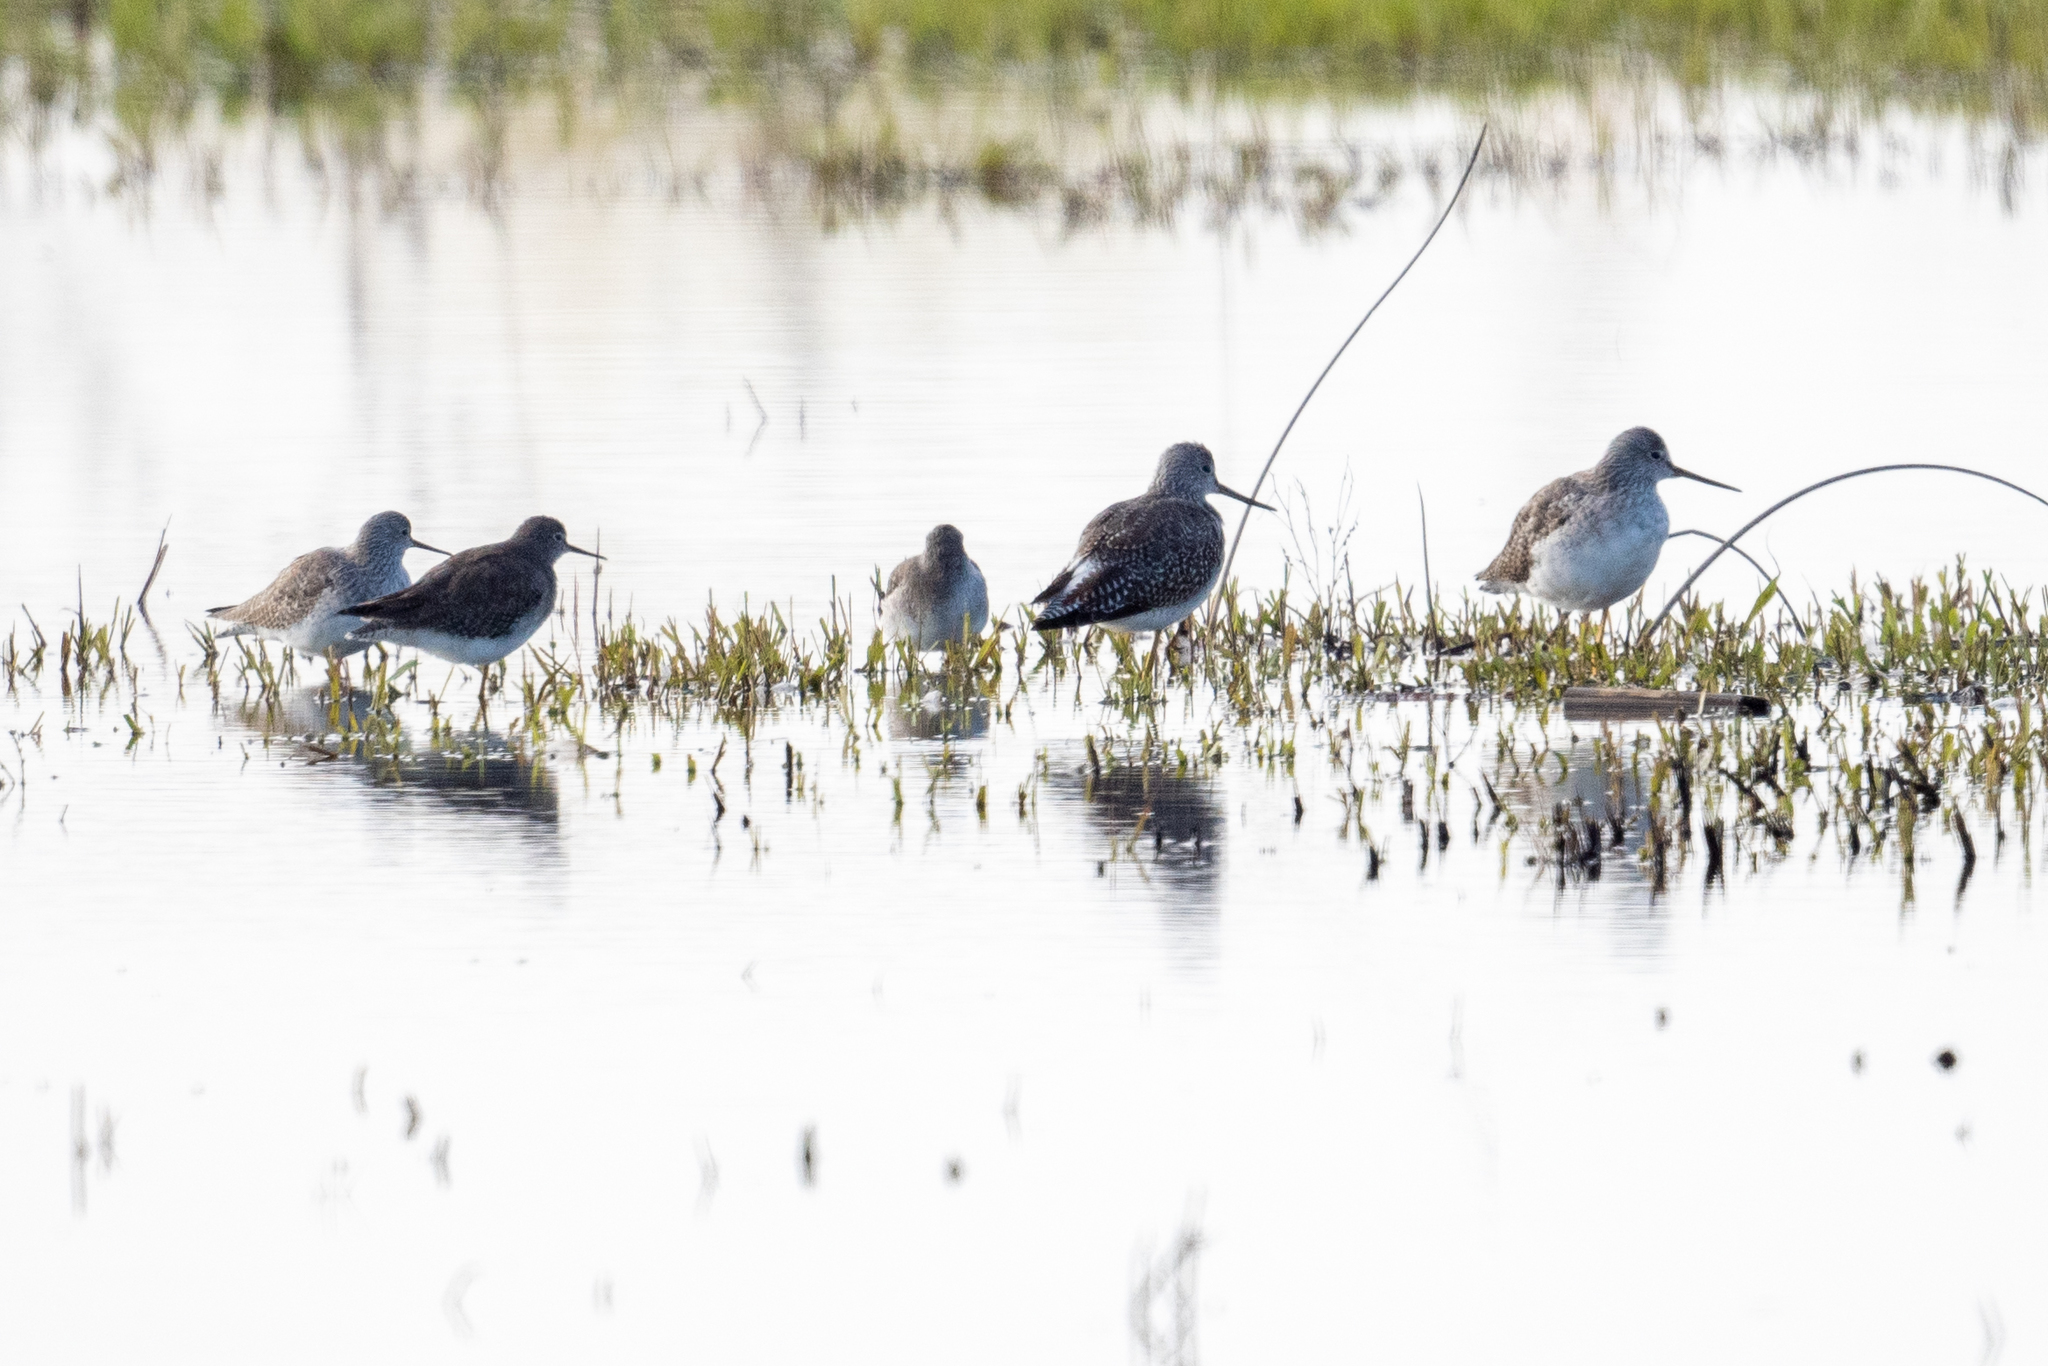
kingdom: Animalia
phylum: Chordata
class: Aves
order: Charadriiformes
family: Scolopacidae
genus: Tringa
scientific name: Tringa melanoleuca
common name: Greater yellowlegs
